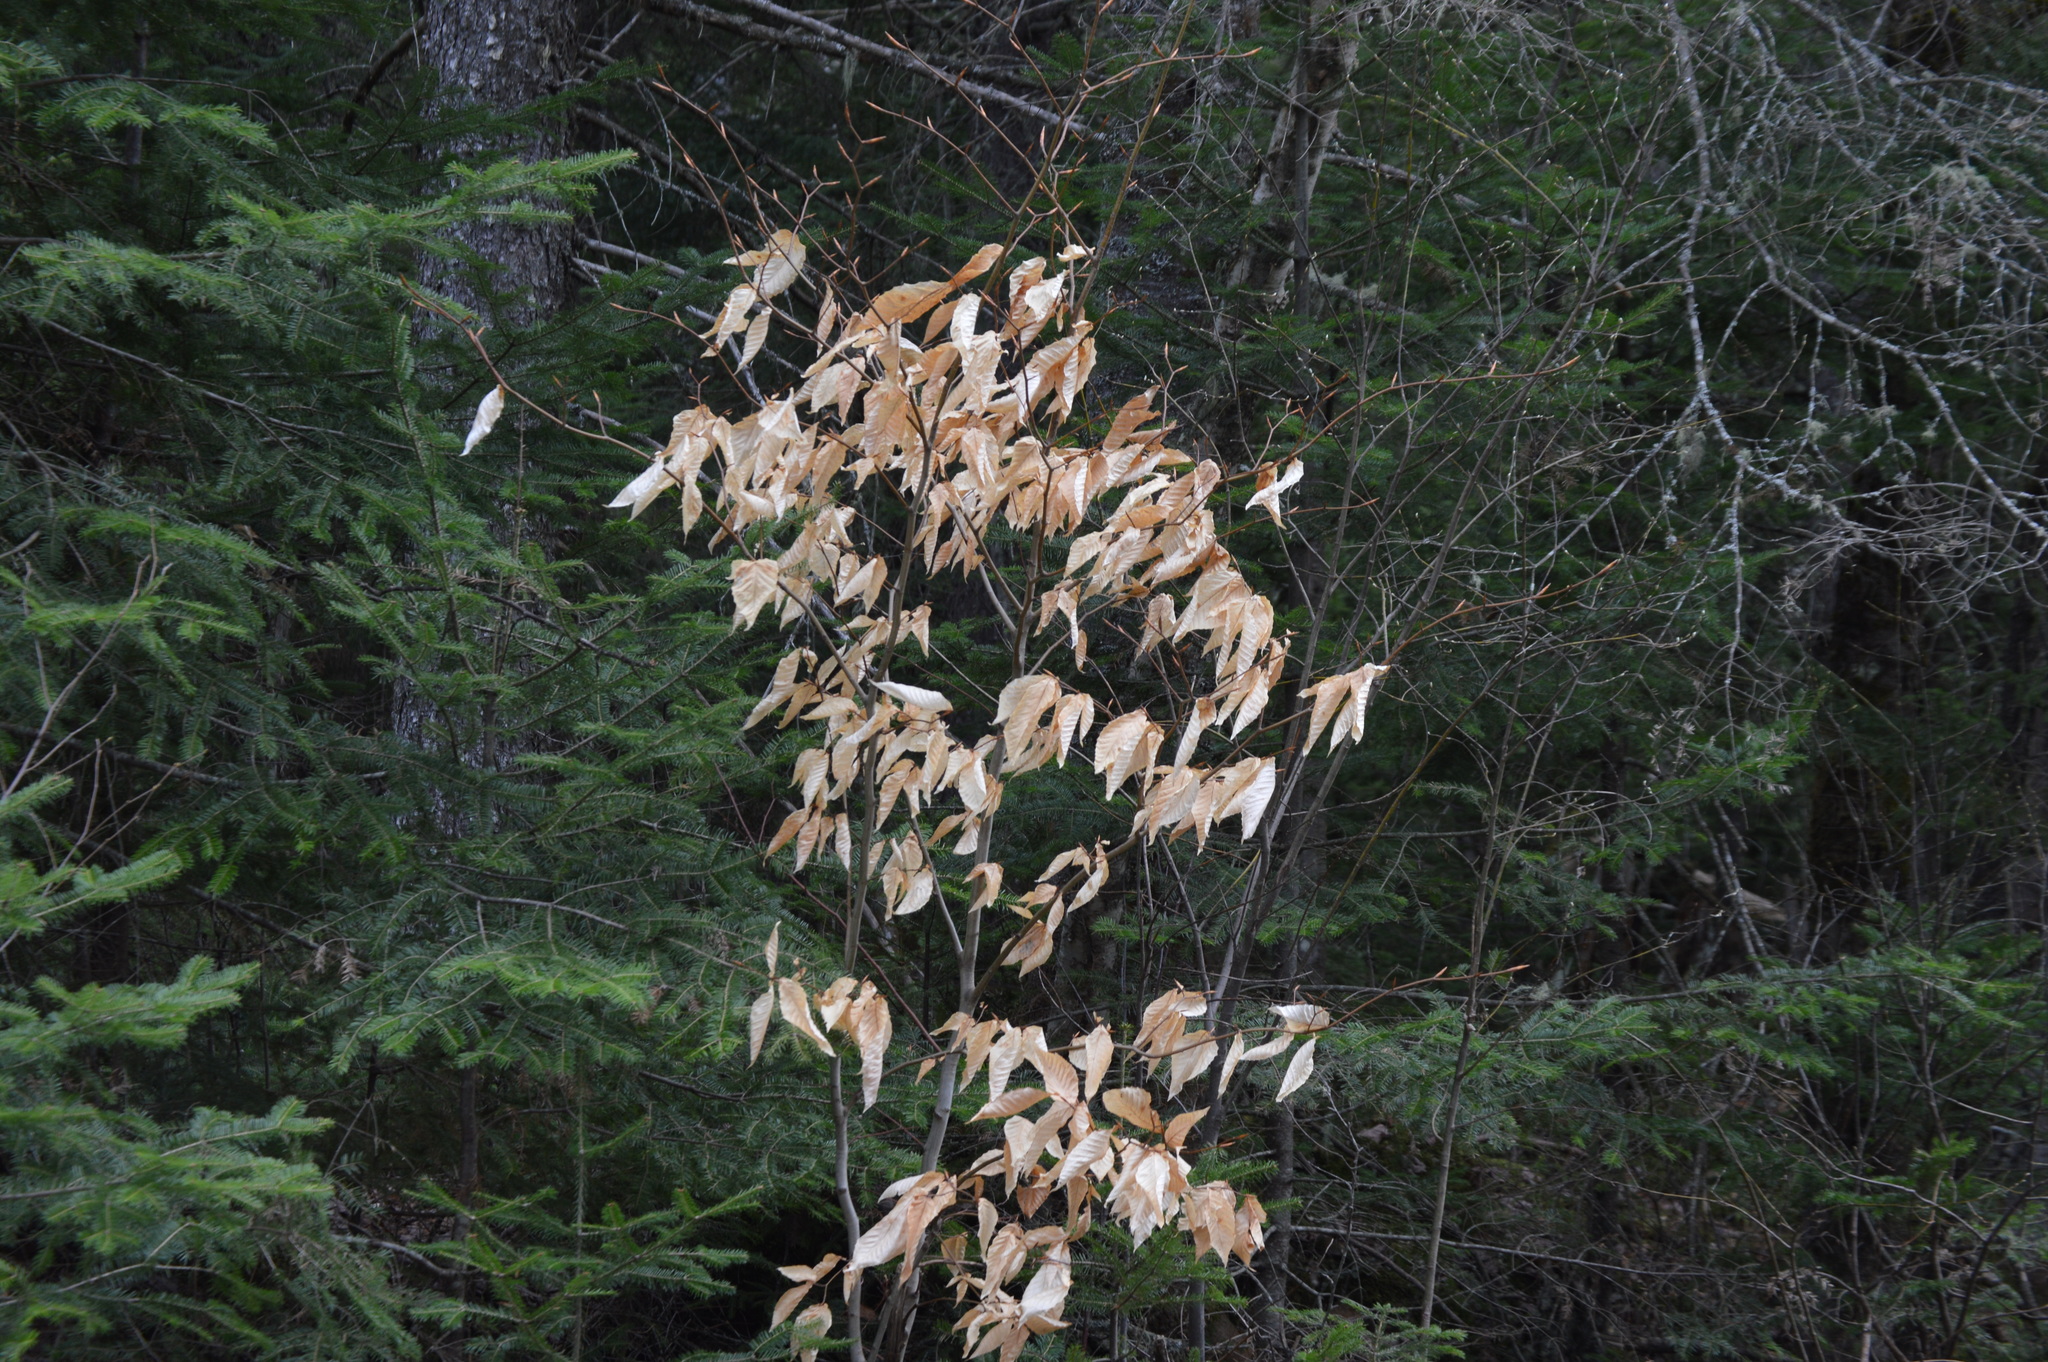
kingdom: Plantae
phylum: Tracheophyta
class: Magnoliopsida
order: Fagales
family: Fagaceae
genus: Fagus
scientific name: Fagus grandifolia
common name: American beech
